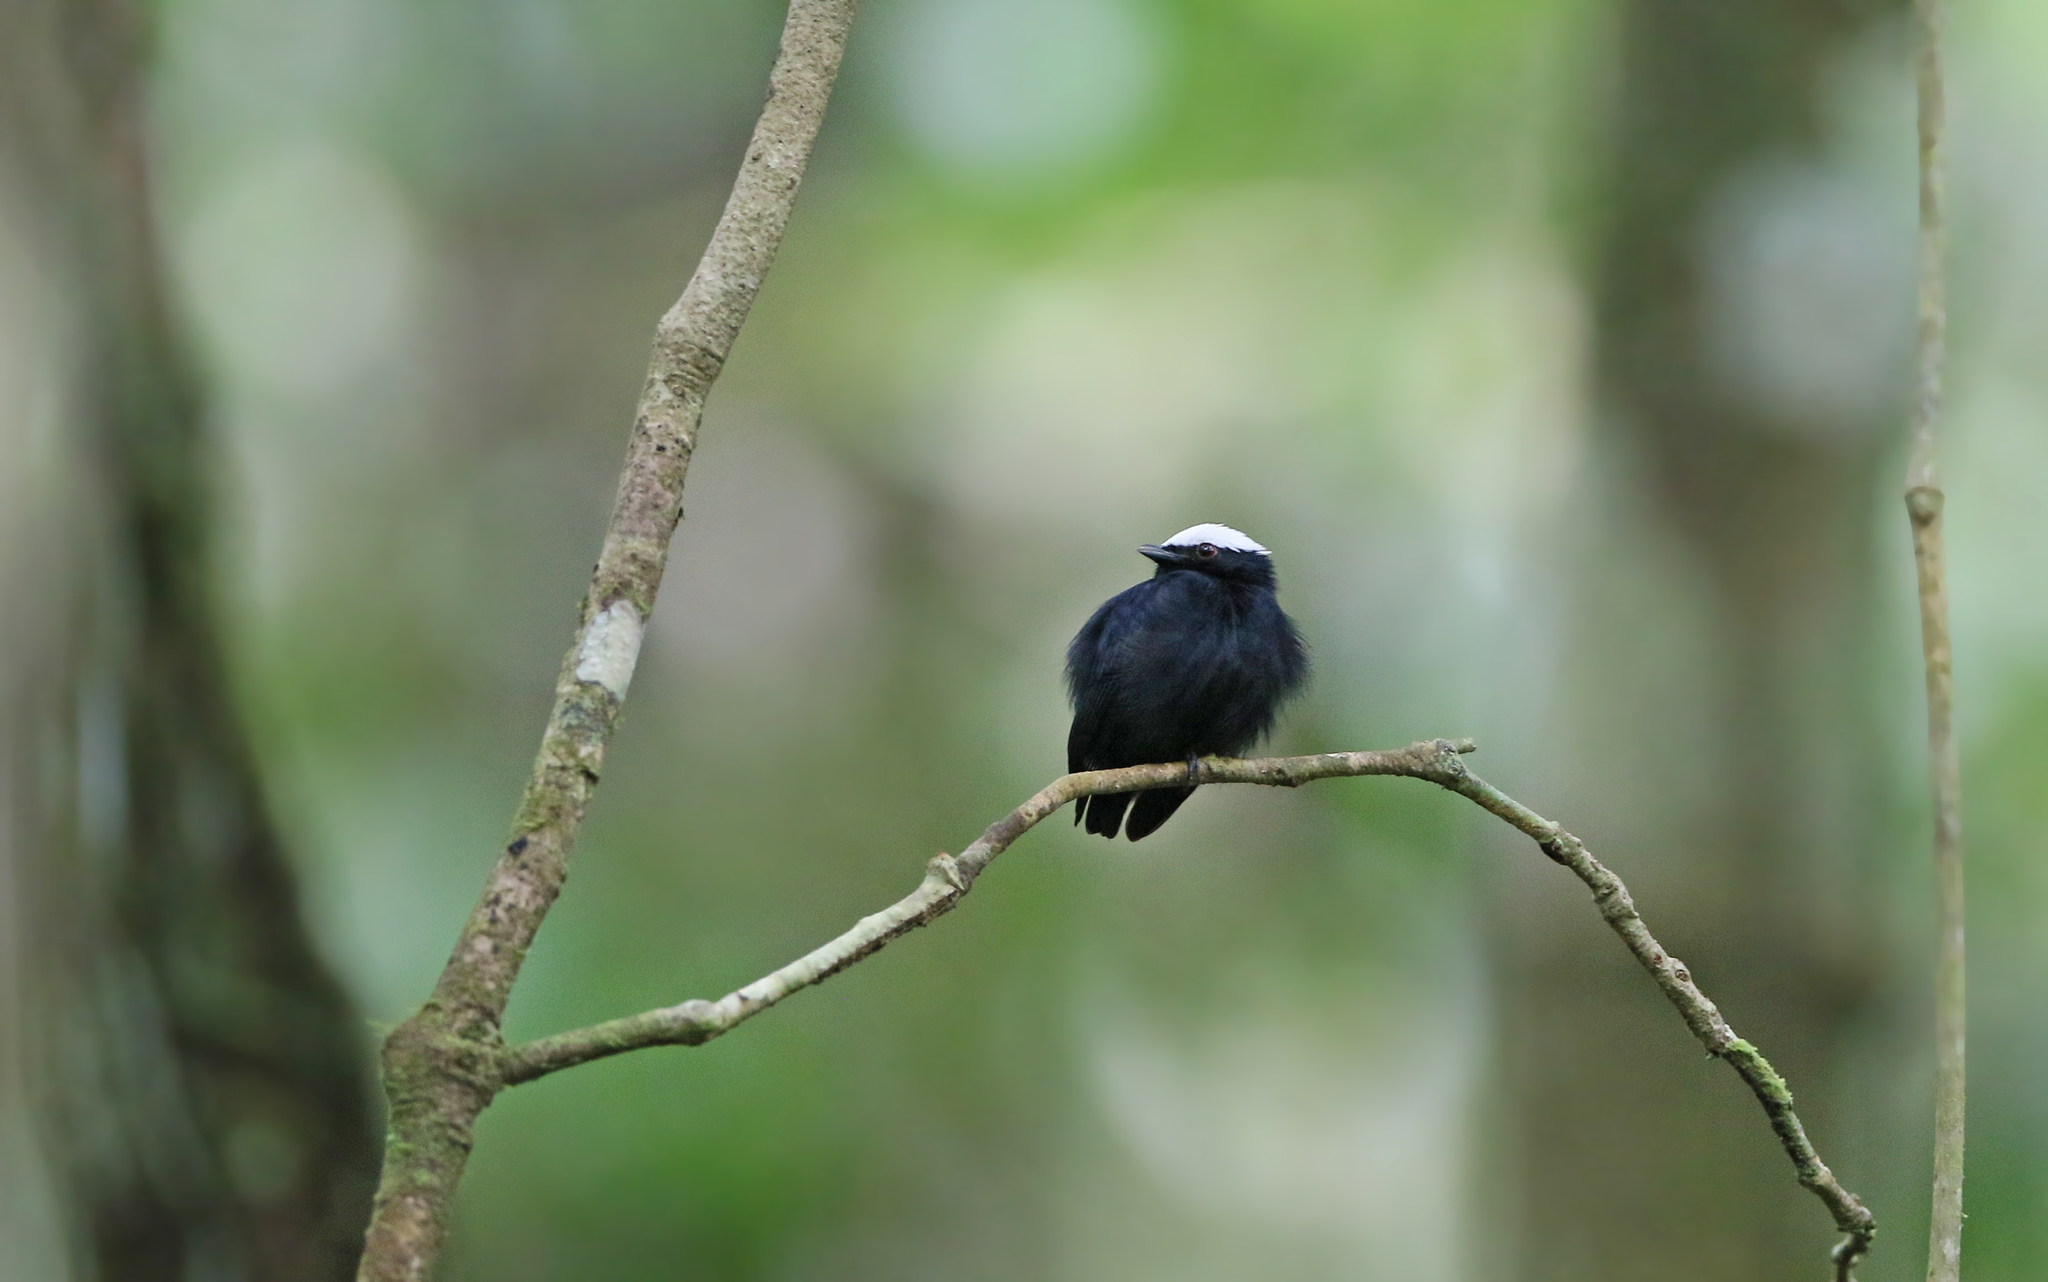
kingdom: Animalia
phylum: Chordata
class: Aves
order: Passeriformes
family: Pipridae
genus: Pipra
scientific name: Pipra pipra
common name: White-crowned manakin
